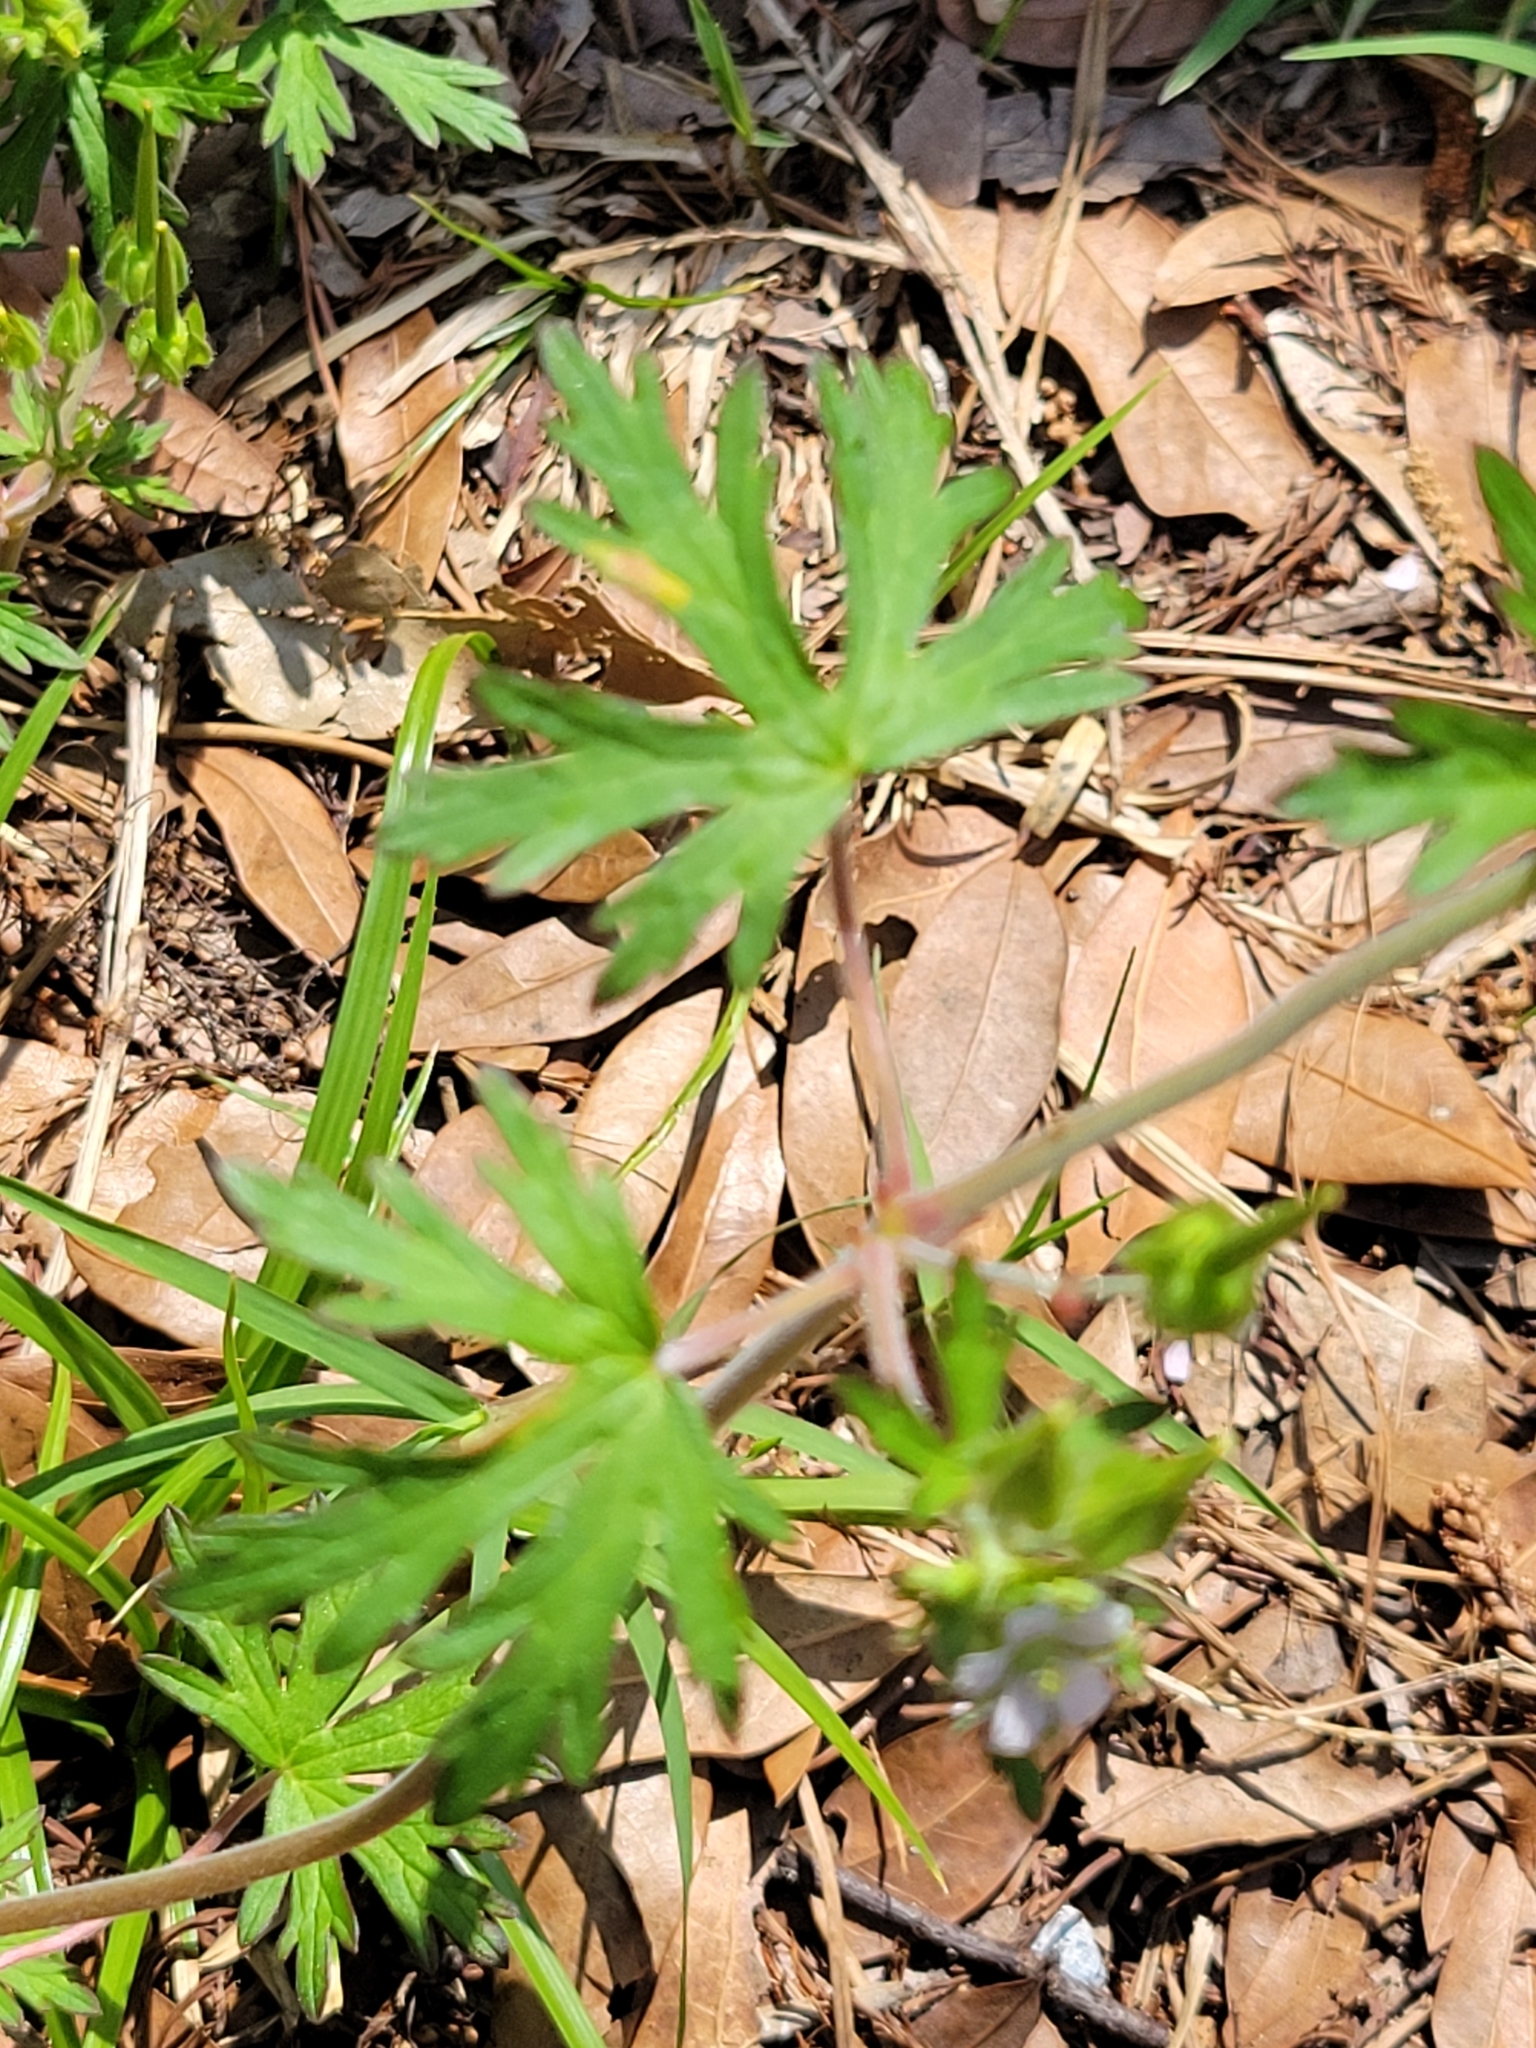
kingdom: Plantae
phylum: Tracheophyta
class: Magnoliopsida
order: Geraniales
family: Geraniaceae
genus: Geranium
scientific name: Geranium carolinianum
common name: Carolina crane's-bill
